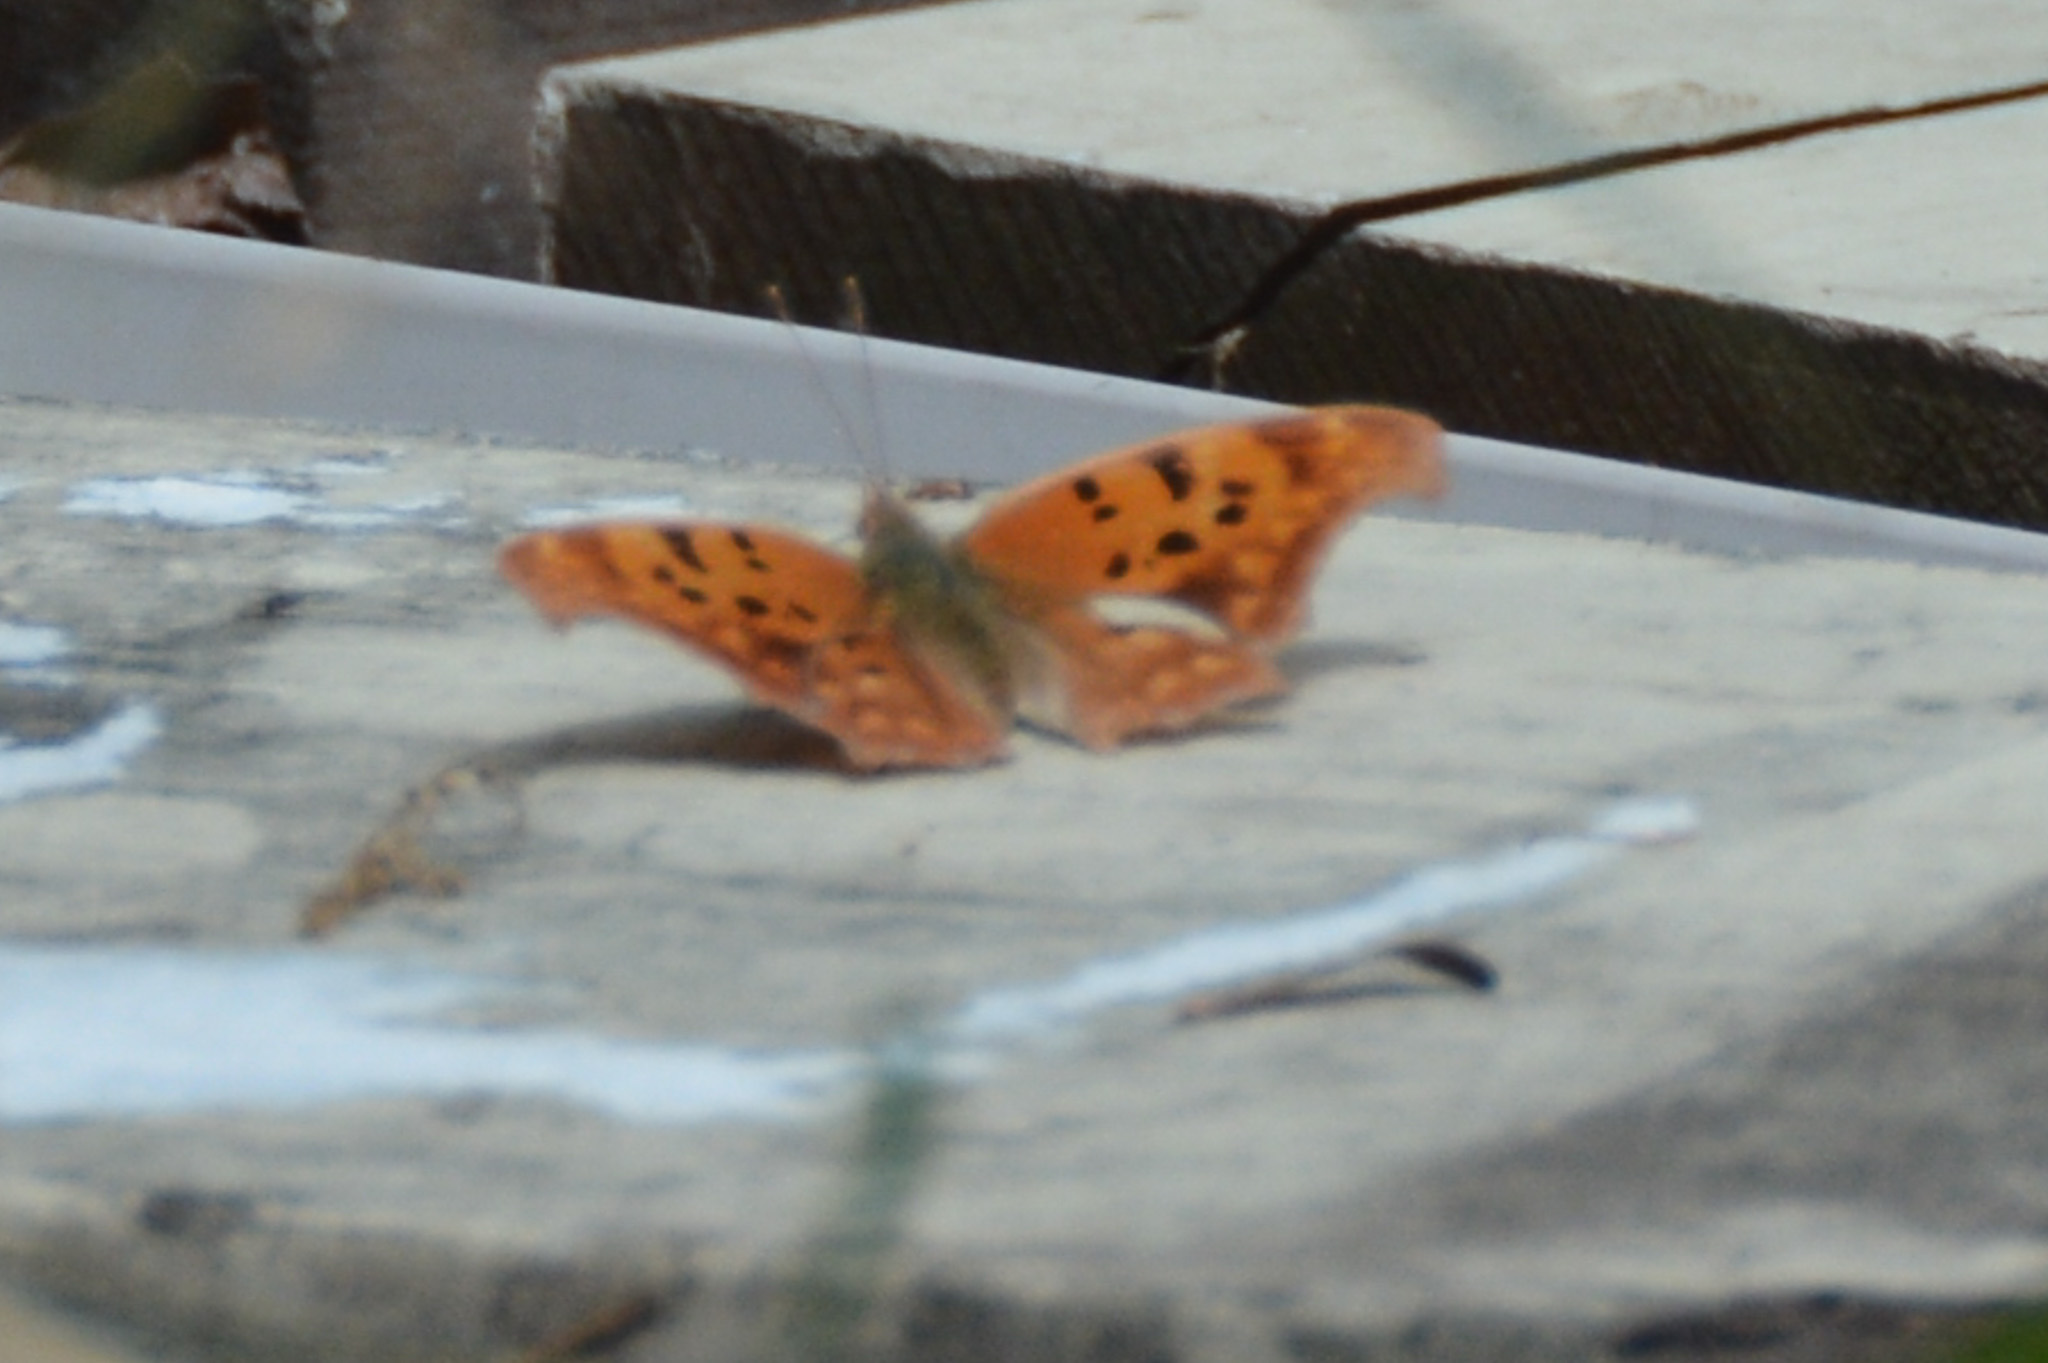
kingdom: Animalia
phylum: Arthropoda
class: Insecta
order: Lepidoptera
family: Nymphalidae
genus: Polygonia
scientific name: Polygonia interrogationis
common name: Question mark
